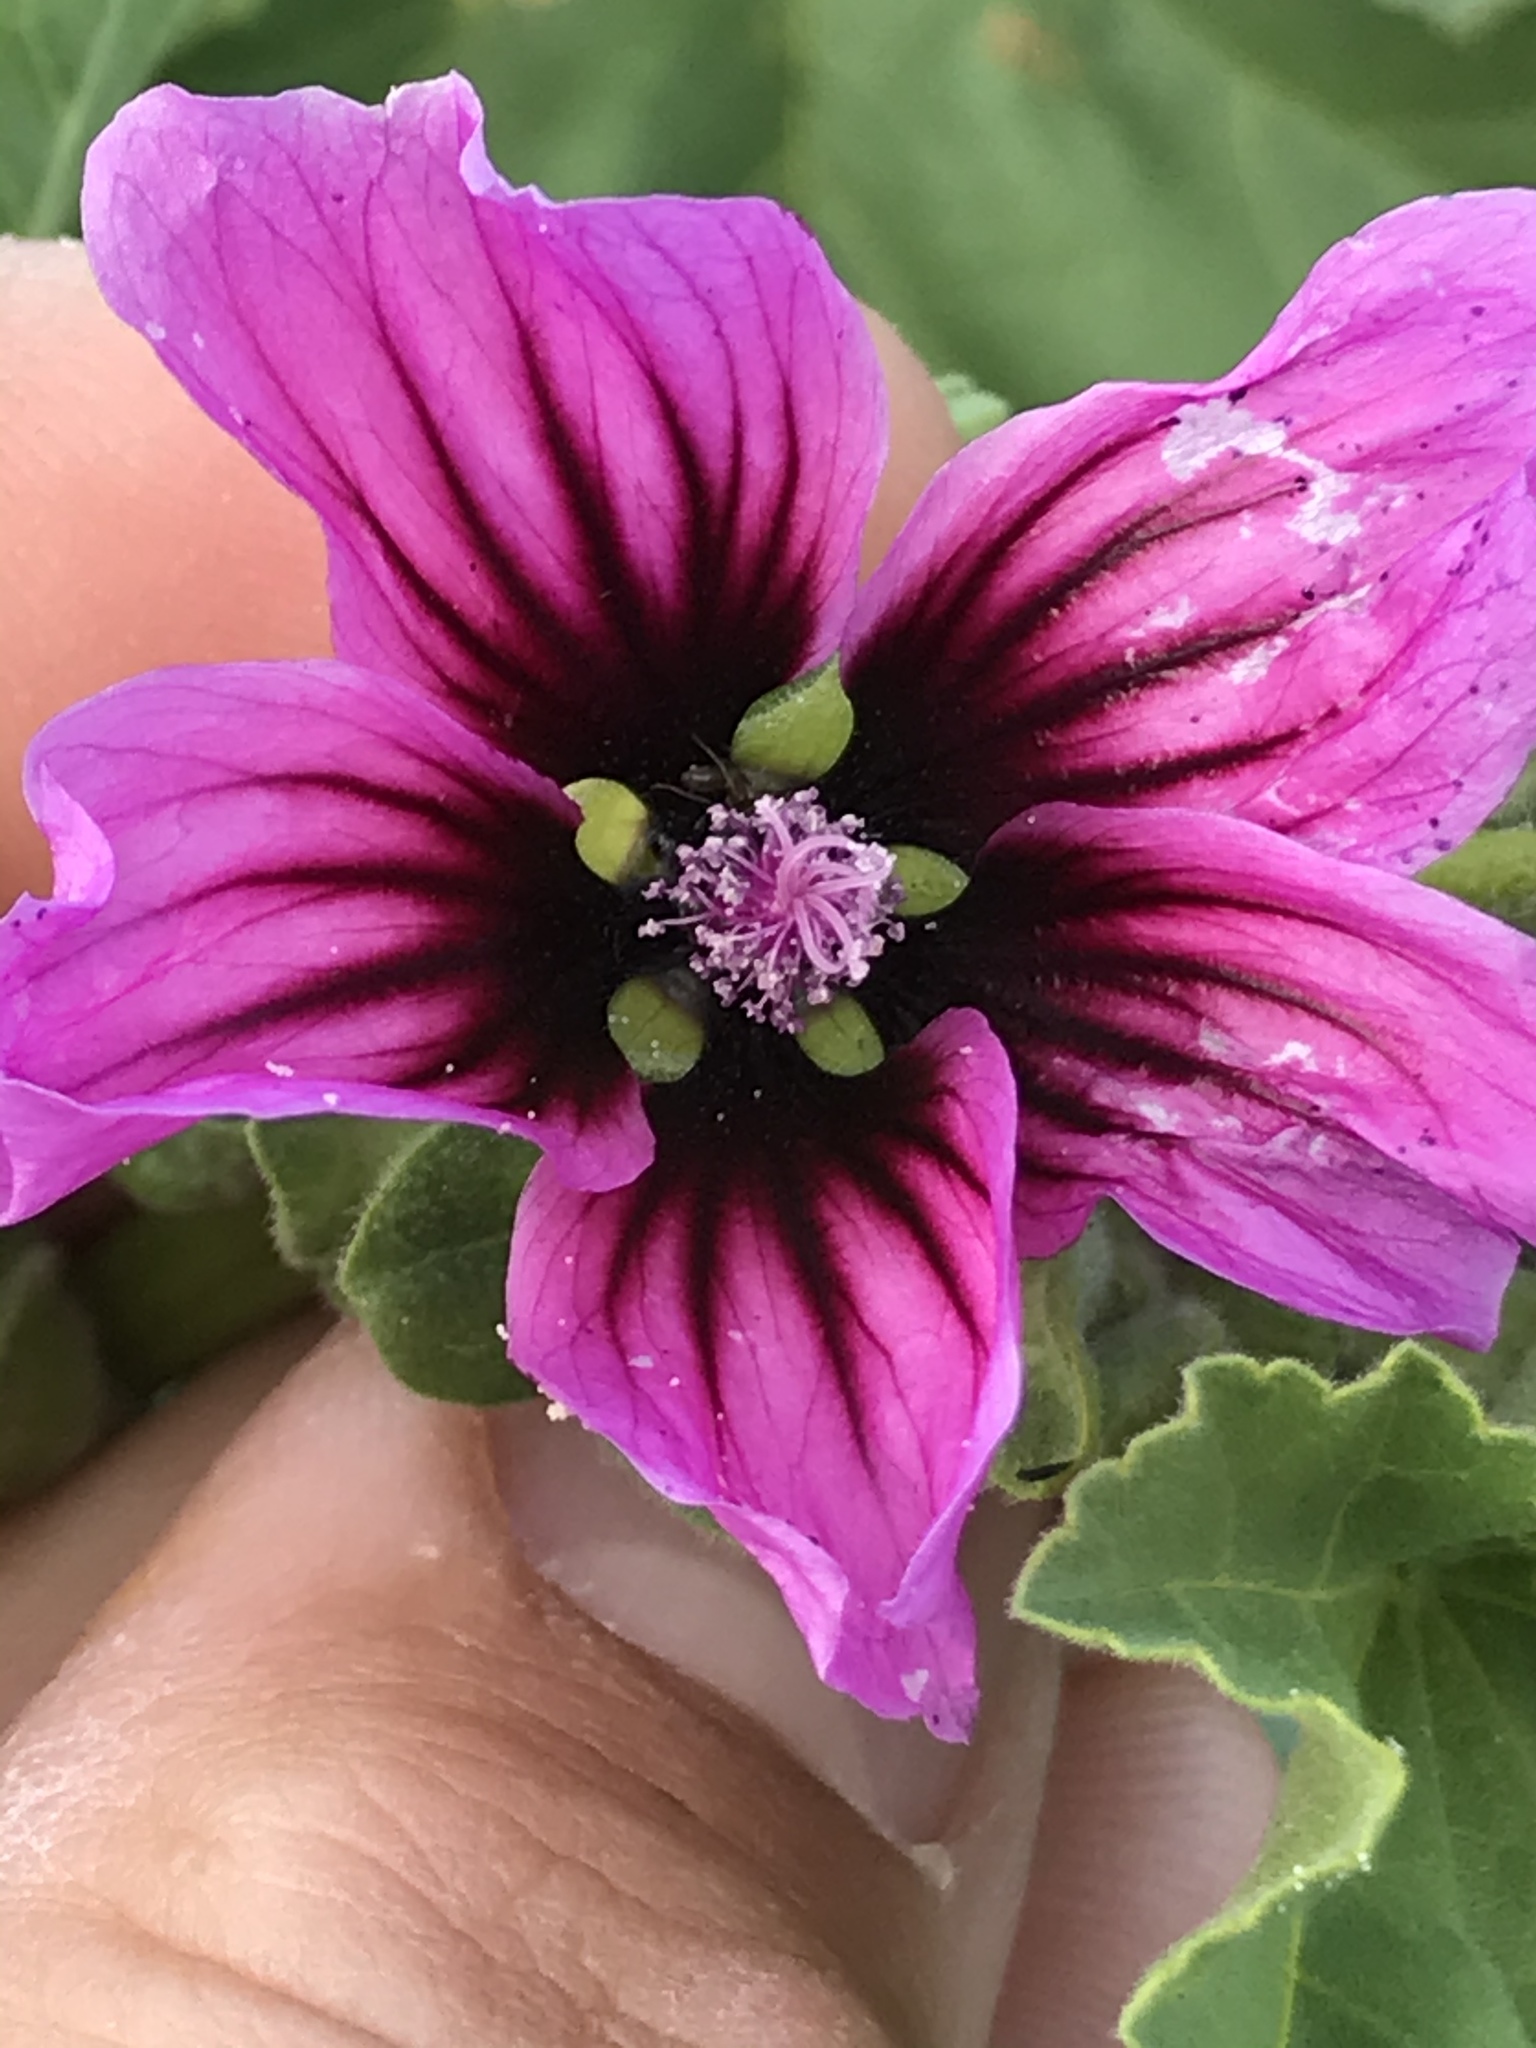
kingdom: Plantae
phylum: Tracheophyta
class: Magnoliopsida
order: Malvales
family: Malvaceae
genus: Malva
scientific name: Malva arborea
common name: Tree mallow
